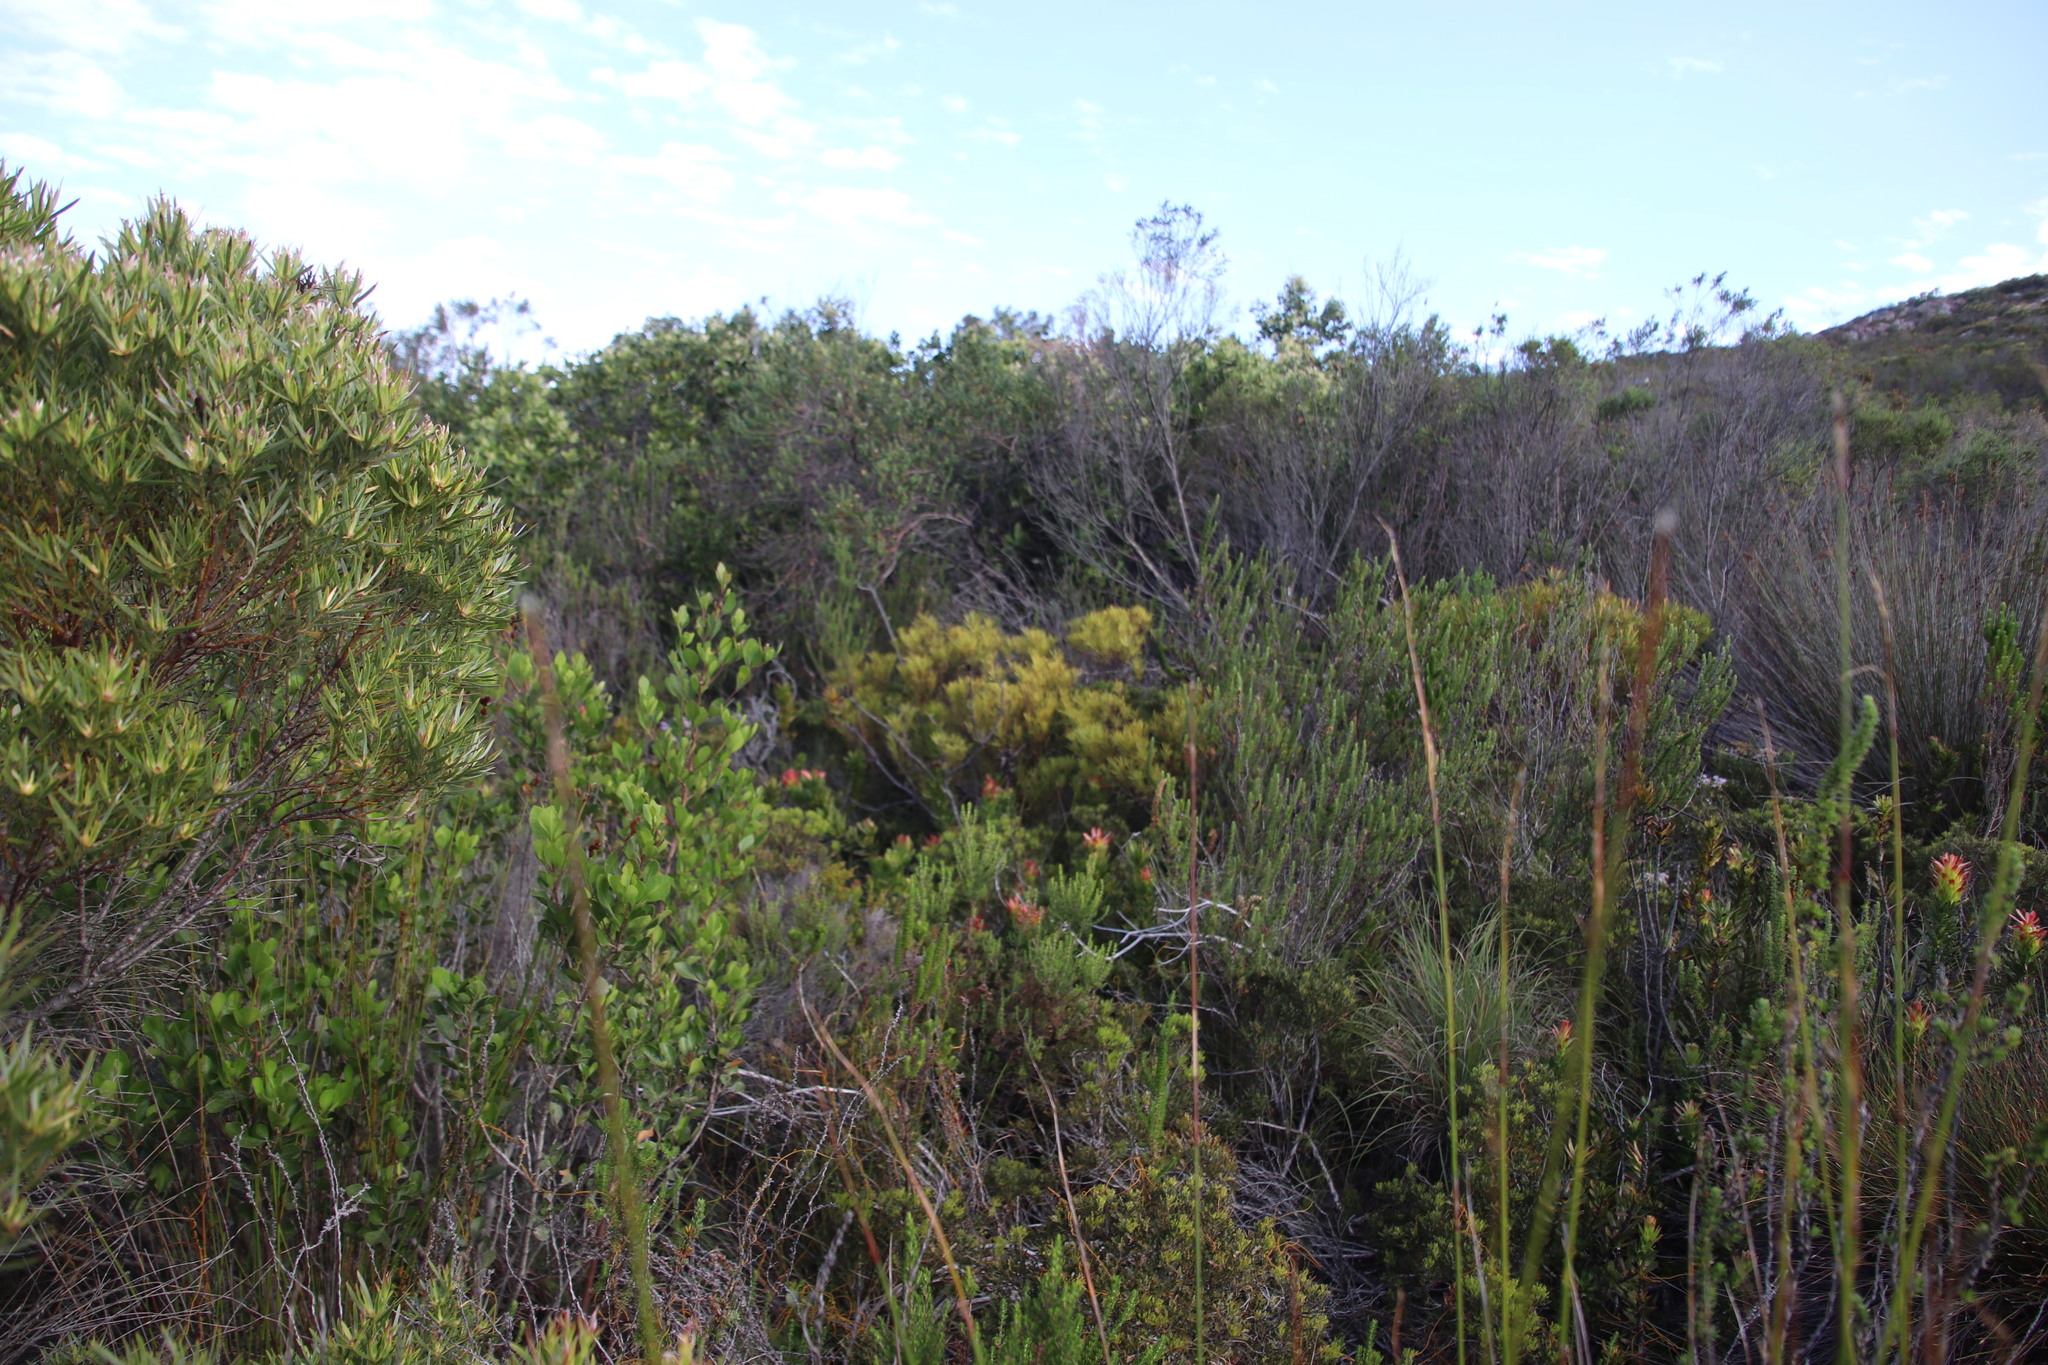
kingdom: Plantae
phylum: Tracheophyta
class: Magnoliopsida
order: Proteales
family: Proteaceae
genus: Leucadendron
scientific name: Leucadendron salignum
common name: Common sunshine conebush
